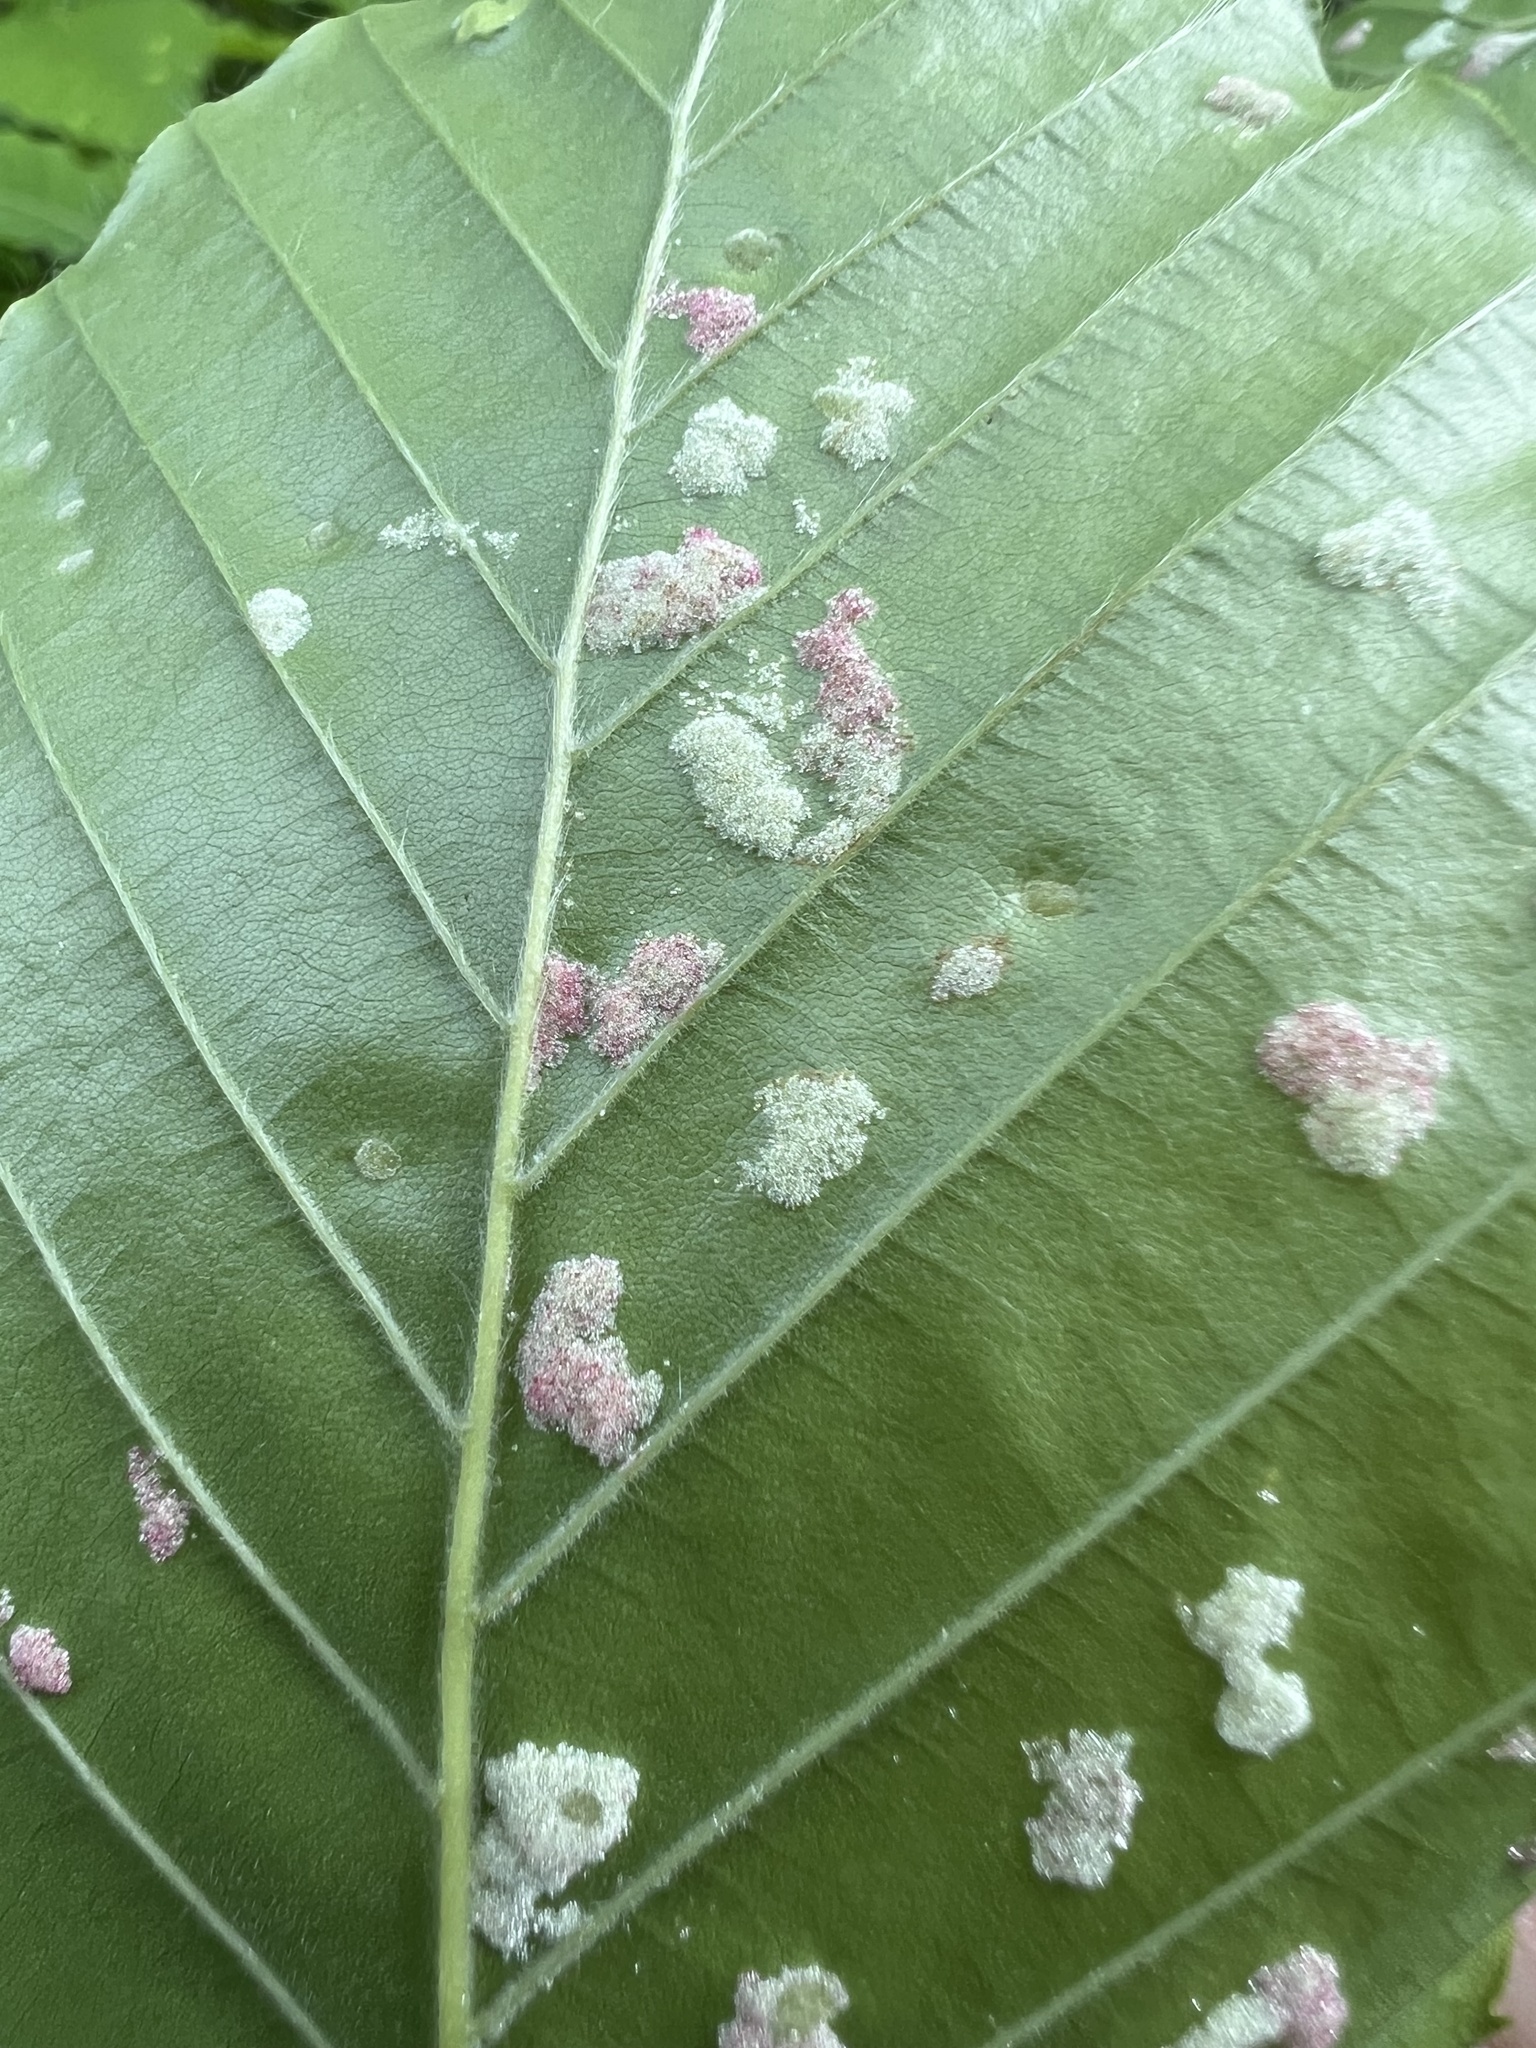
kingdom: Animalia
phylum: Arthropoda
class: Arachnida
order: Trombidiformes
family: Eriophyidae
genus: Acalitus
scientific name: Acalitus
